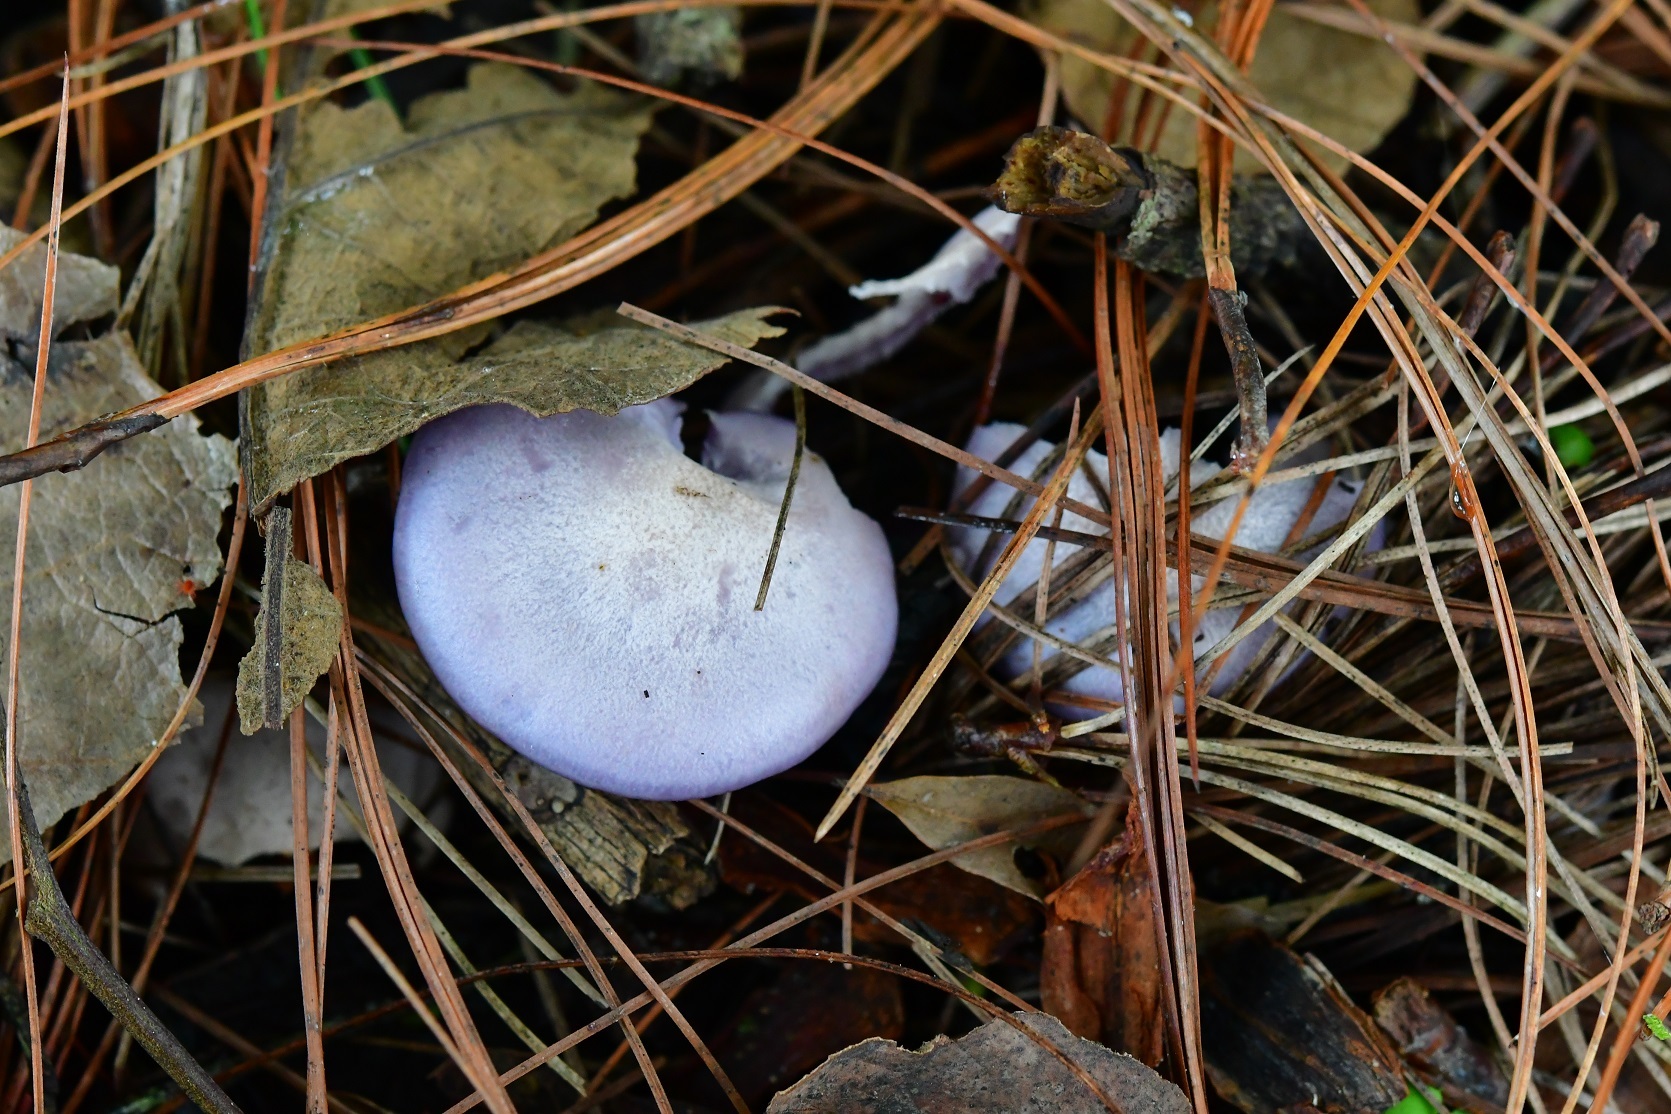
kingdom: Fungi
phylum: Basidiomycota
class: Agaricomycetes
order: Agaricales
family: Tricholomataceae
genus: Collybia
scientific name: Collybia
